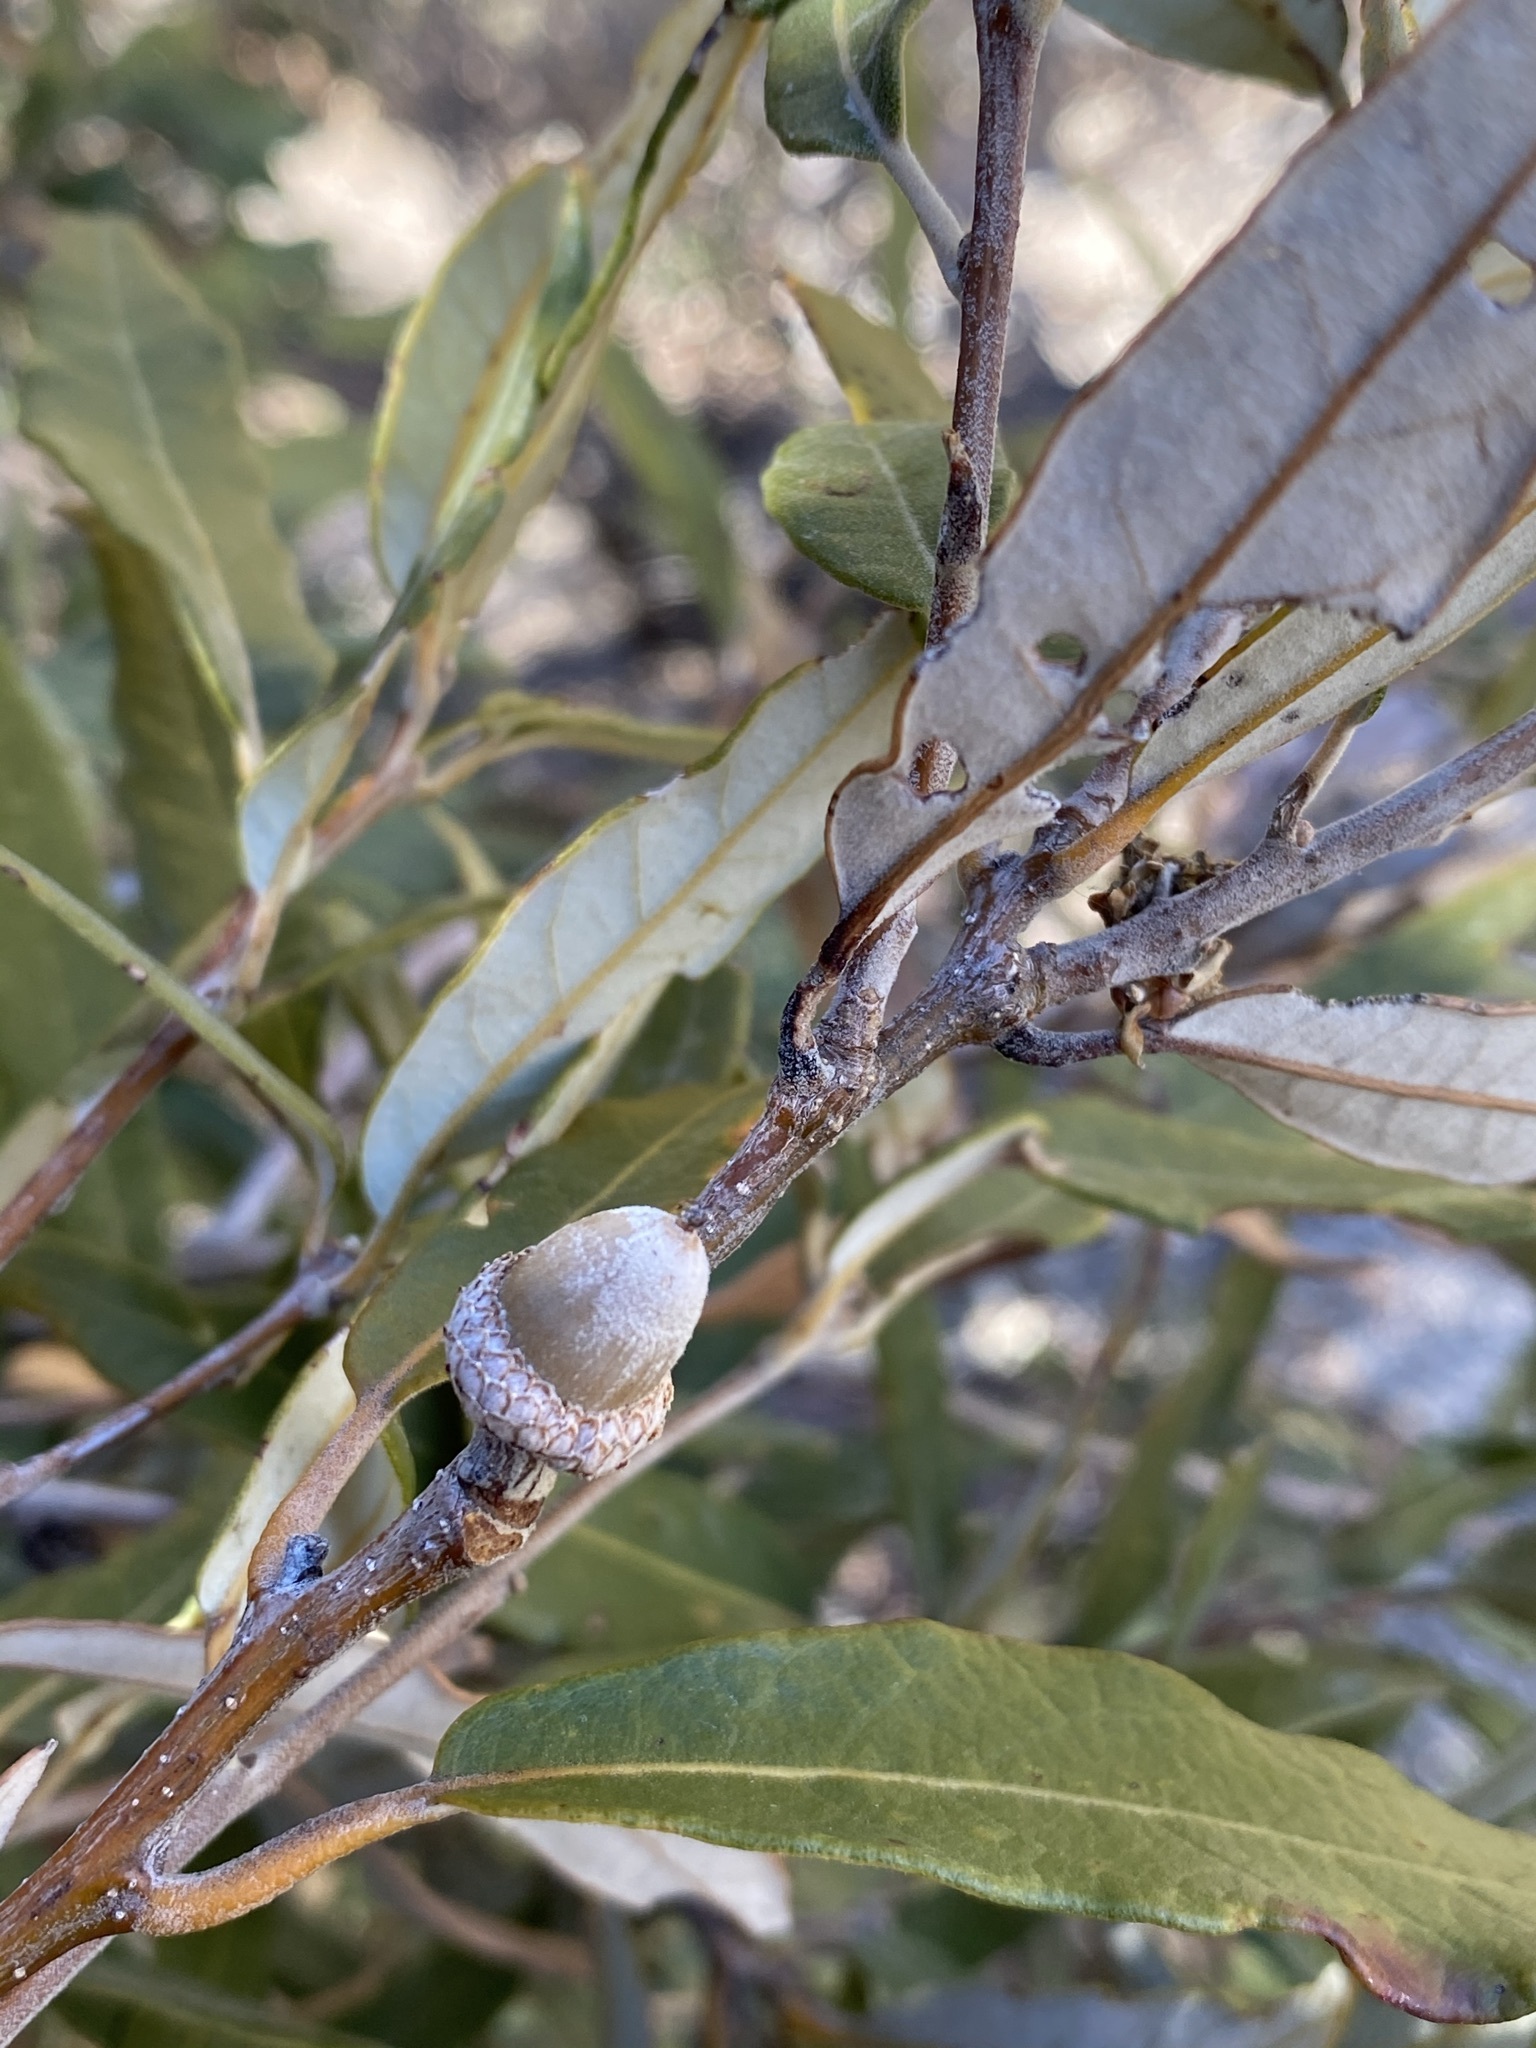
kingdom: Plantae
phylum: Tracheophyta
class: Magnoliopsida
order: Fagales
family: Fagaceae
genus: Quercus
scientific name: Quercus hypoleucoides
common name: Silverleaf oak
